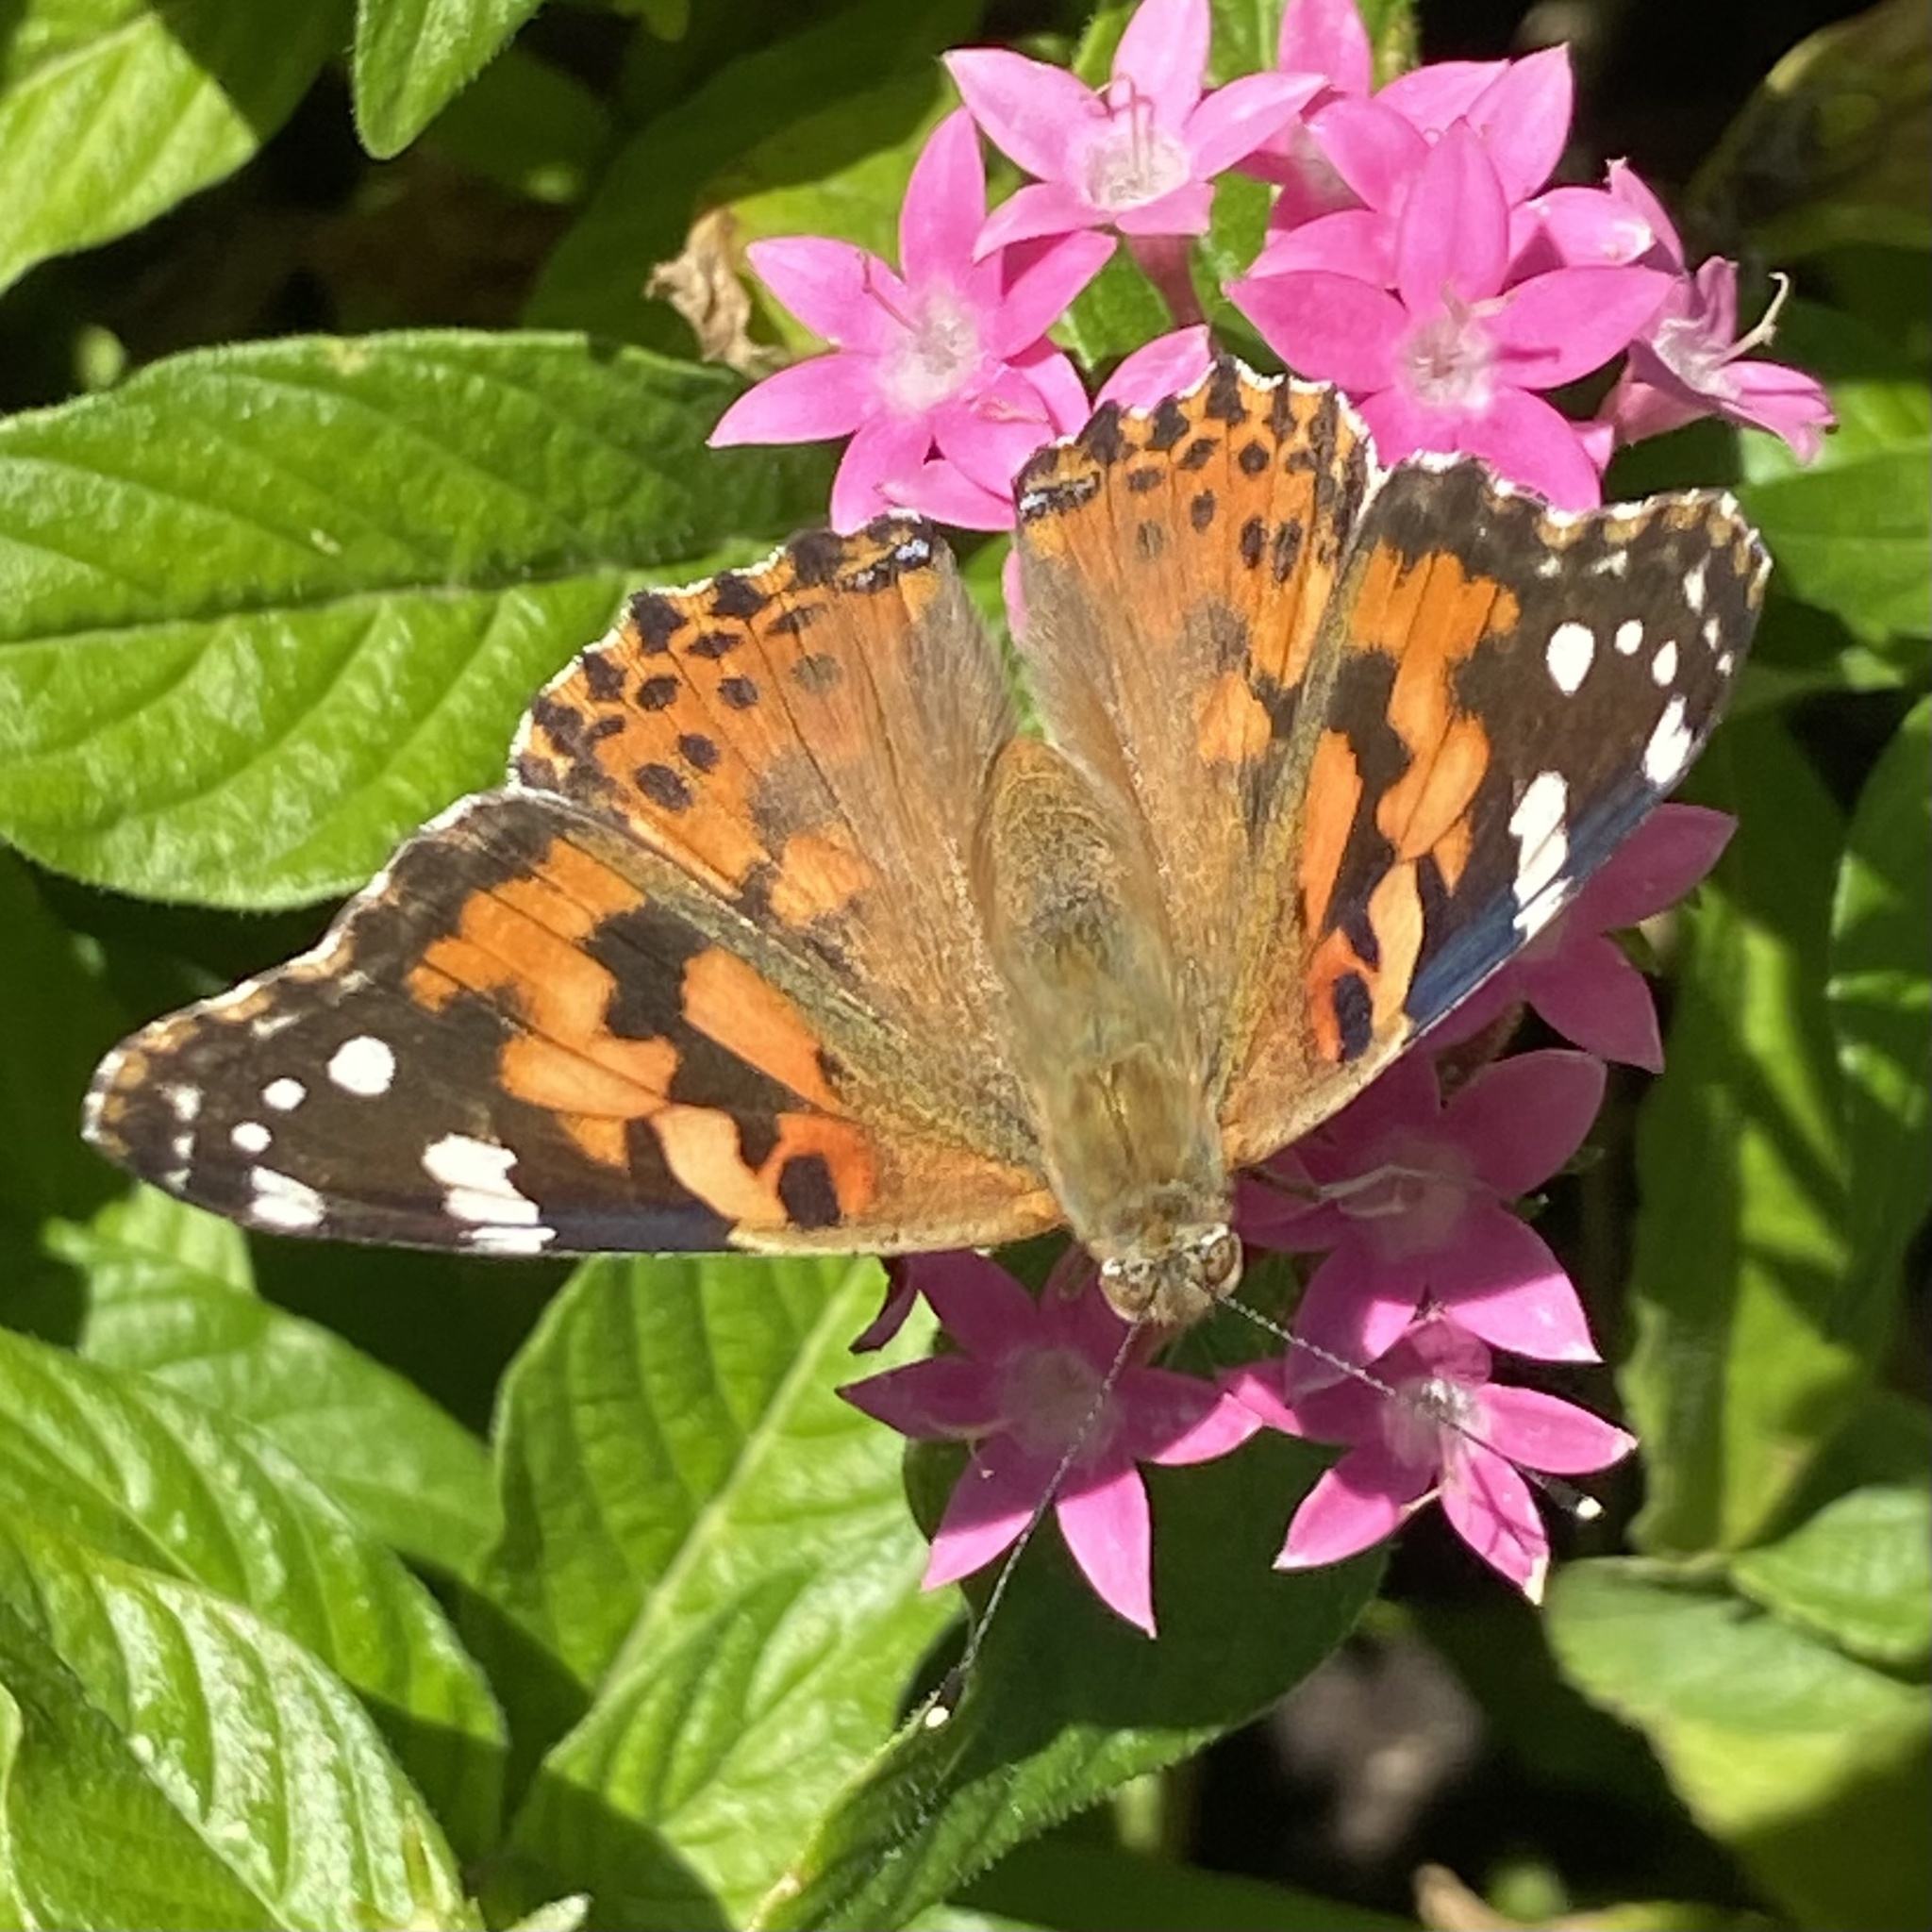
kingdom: Animalia
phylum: Arthropoda
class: Insecta
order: Lepidoptera
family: Nymphalidae
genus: Vanessa
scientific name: Vanessa cardui
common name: Painted lady
